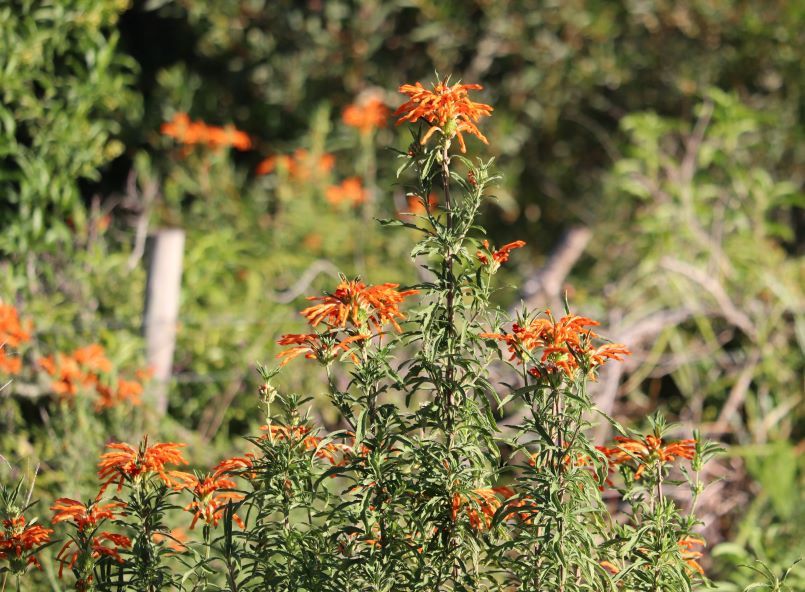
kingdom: Plantae
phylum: Tracheophyta
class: Magnoliopsida
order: Lamiales
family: Lamiaceae
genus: Leonotis
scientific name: Leonotis leonurus
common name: Lion's ear
